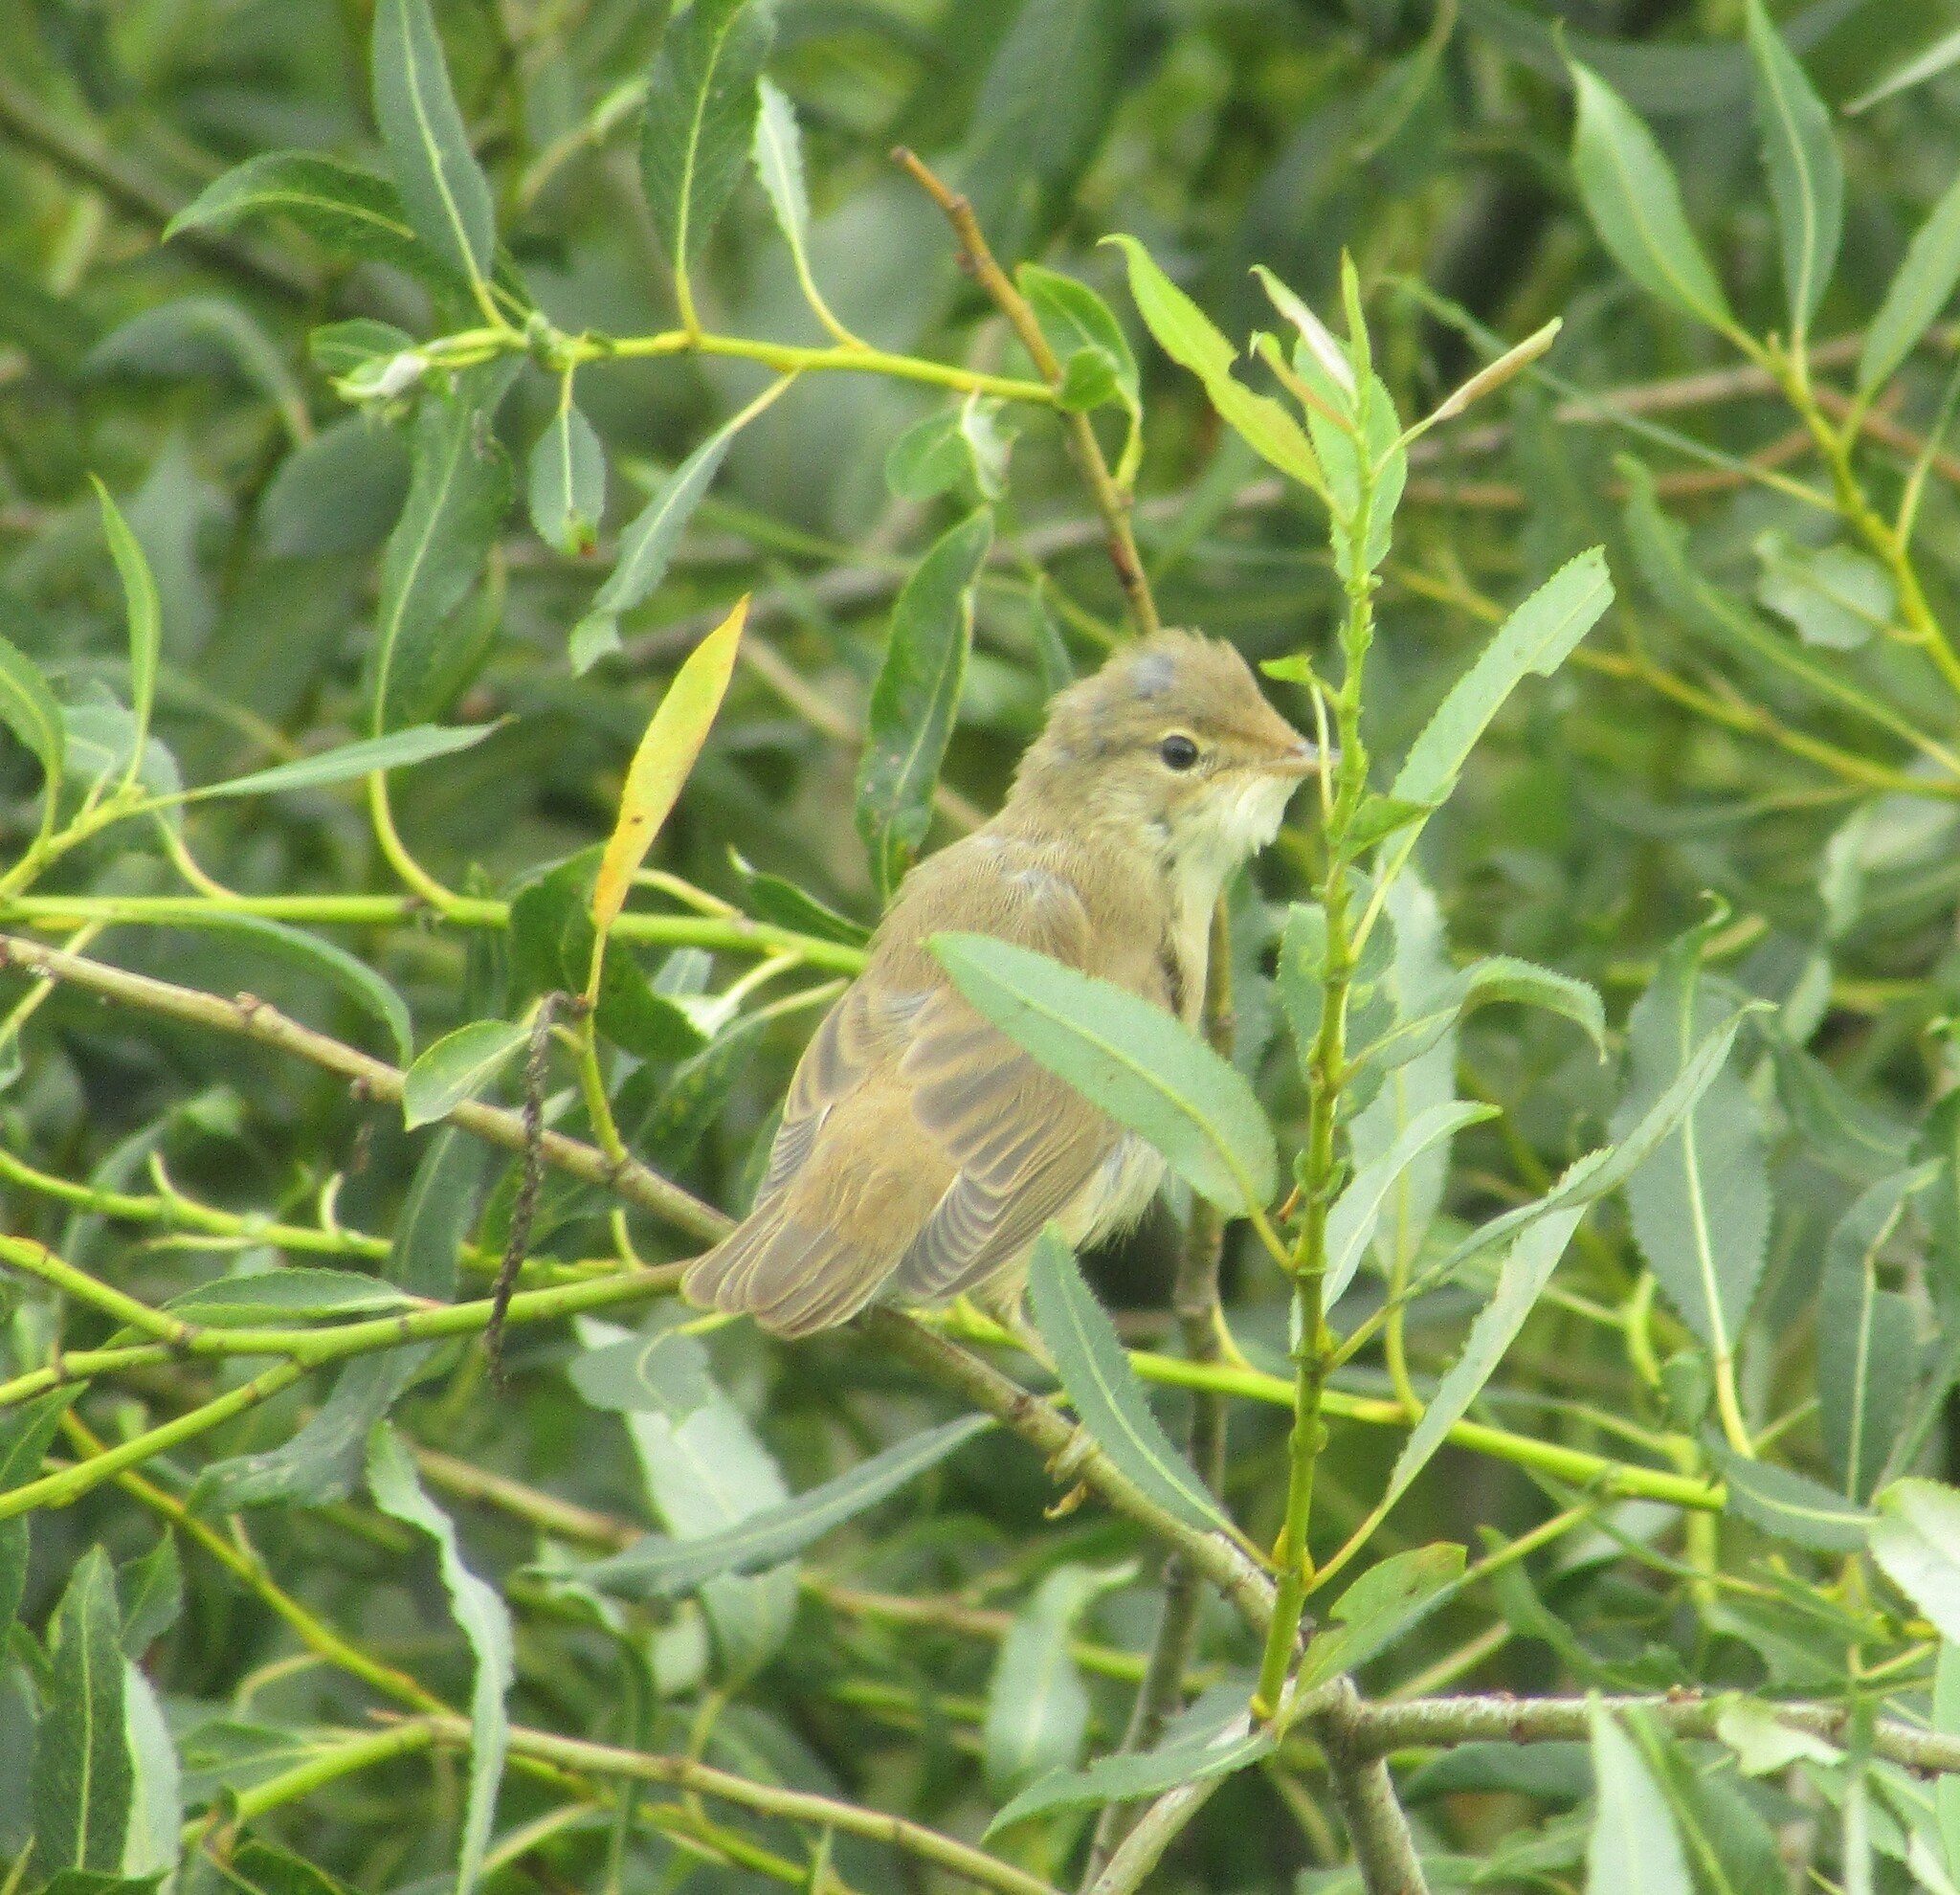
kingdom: Animalia
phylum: Chordata
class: Aves
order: Passeriformes
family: Acrocephalidae
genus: Acrocephalus
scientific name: Acrocephalus palustris
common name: Marsh warbler
